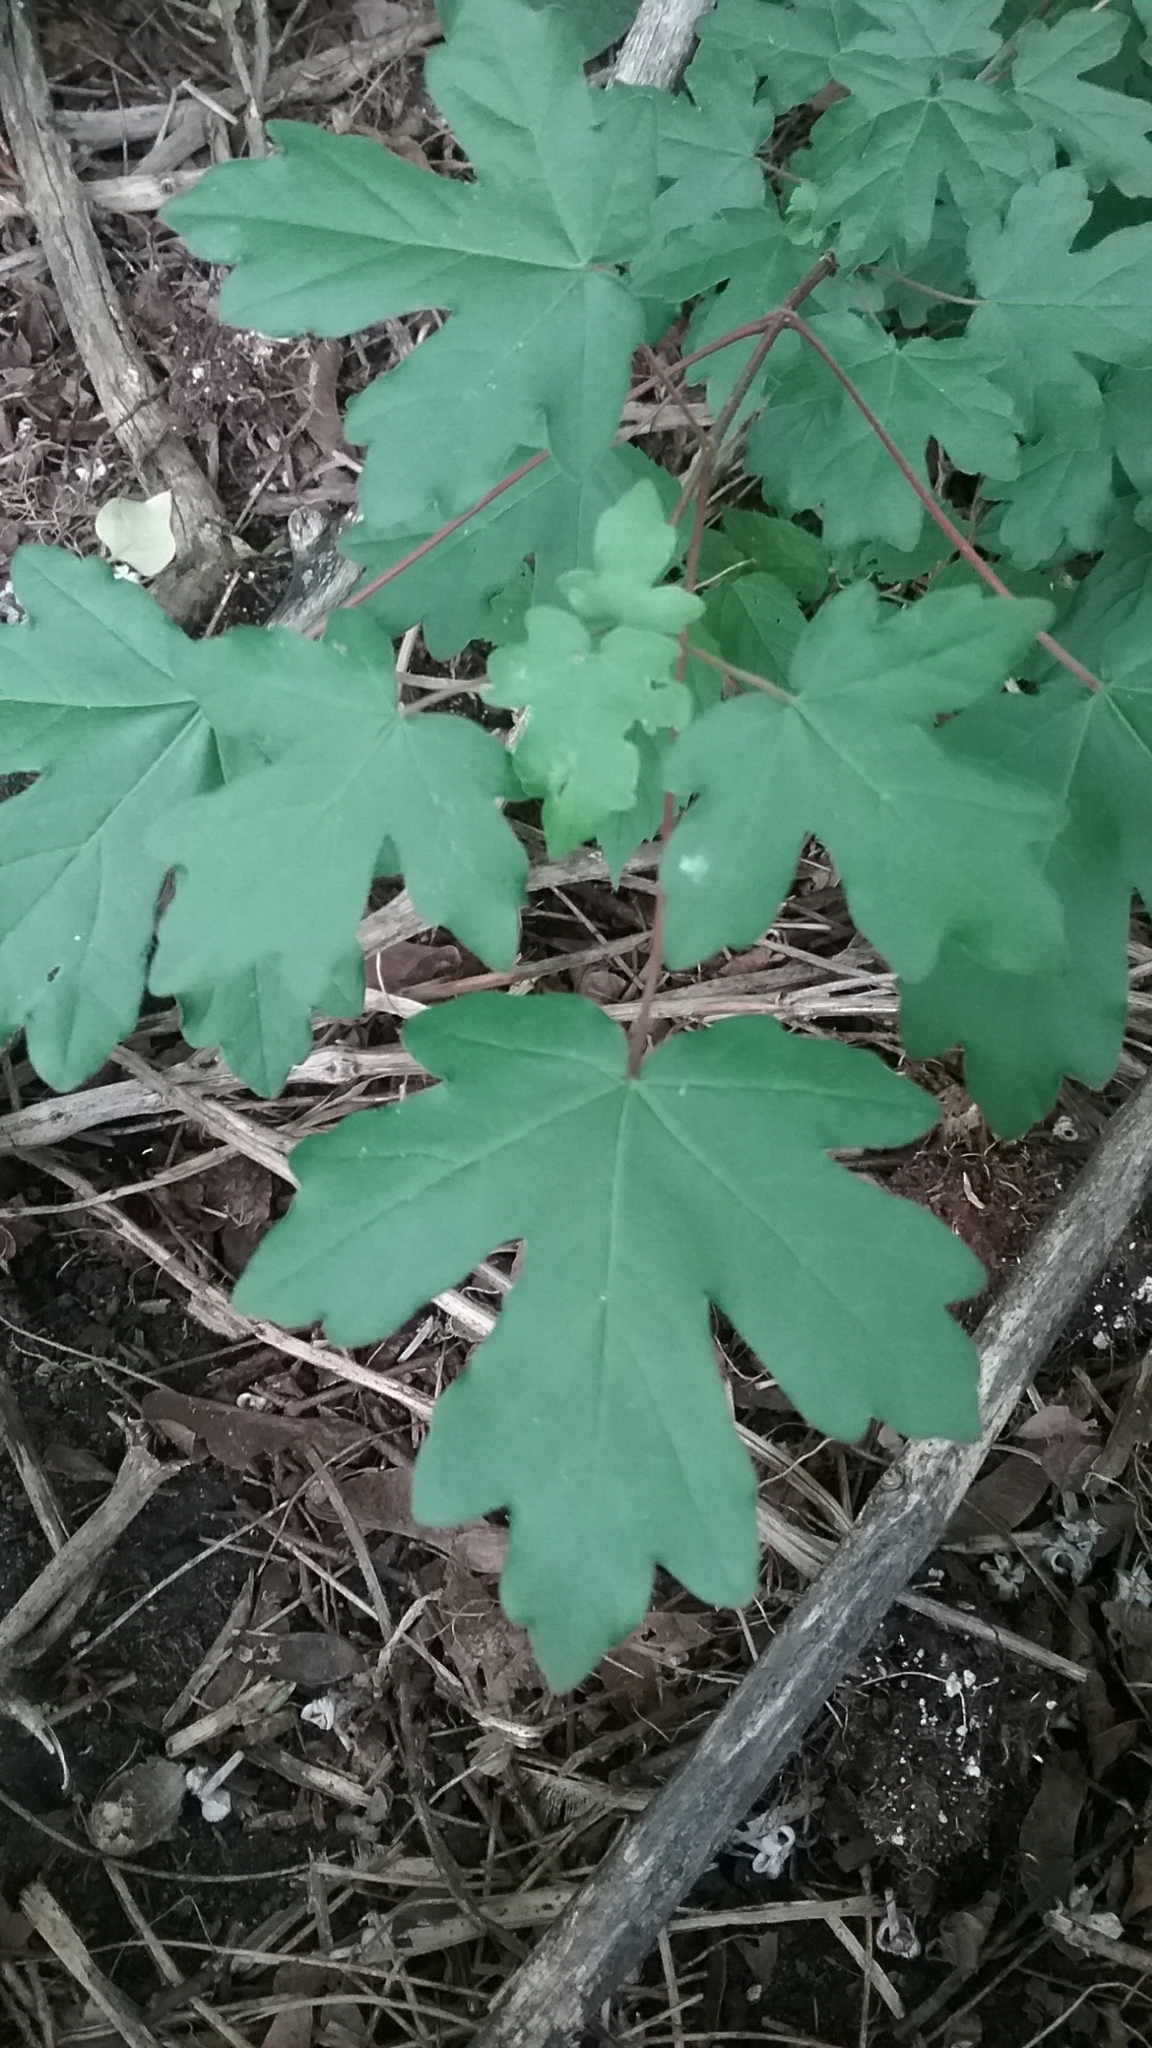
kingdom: Plantae
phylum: Tracheophyta
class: Magnoliopsida
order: Sapindales
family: Sapindaceae
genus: Acer
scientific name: Acer campestre
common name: Field maple
